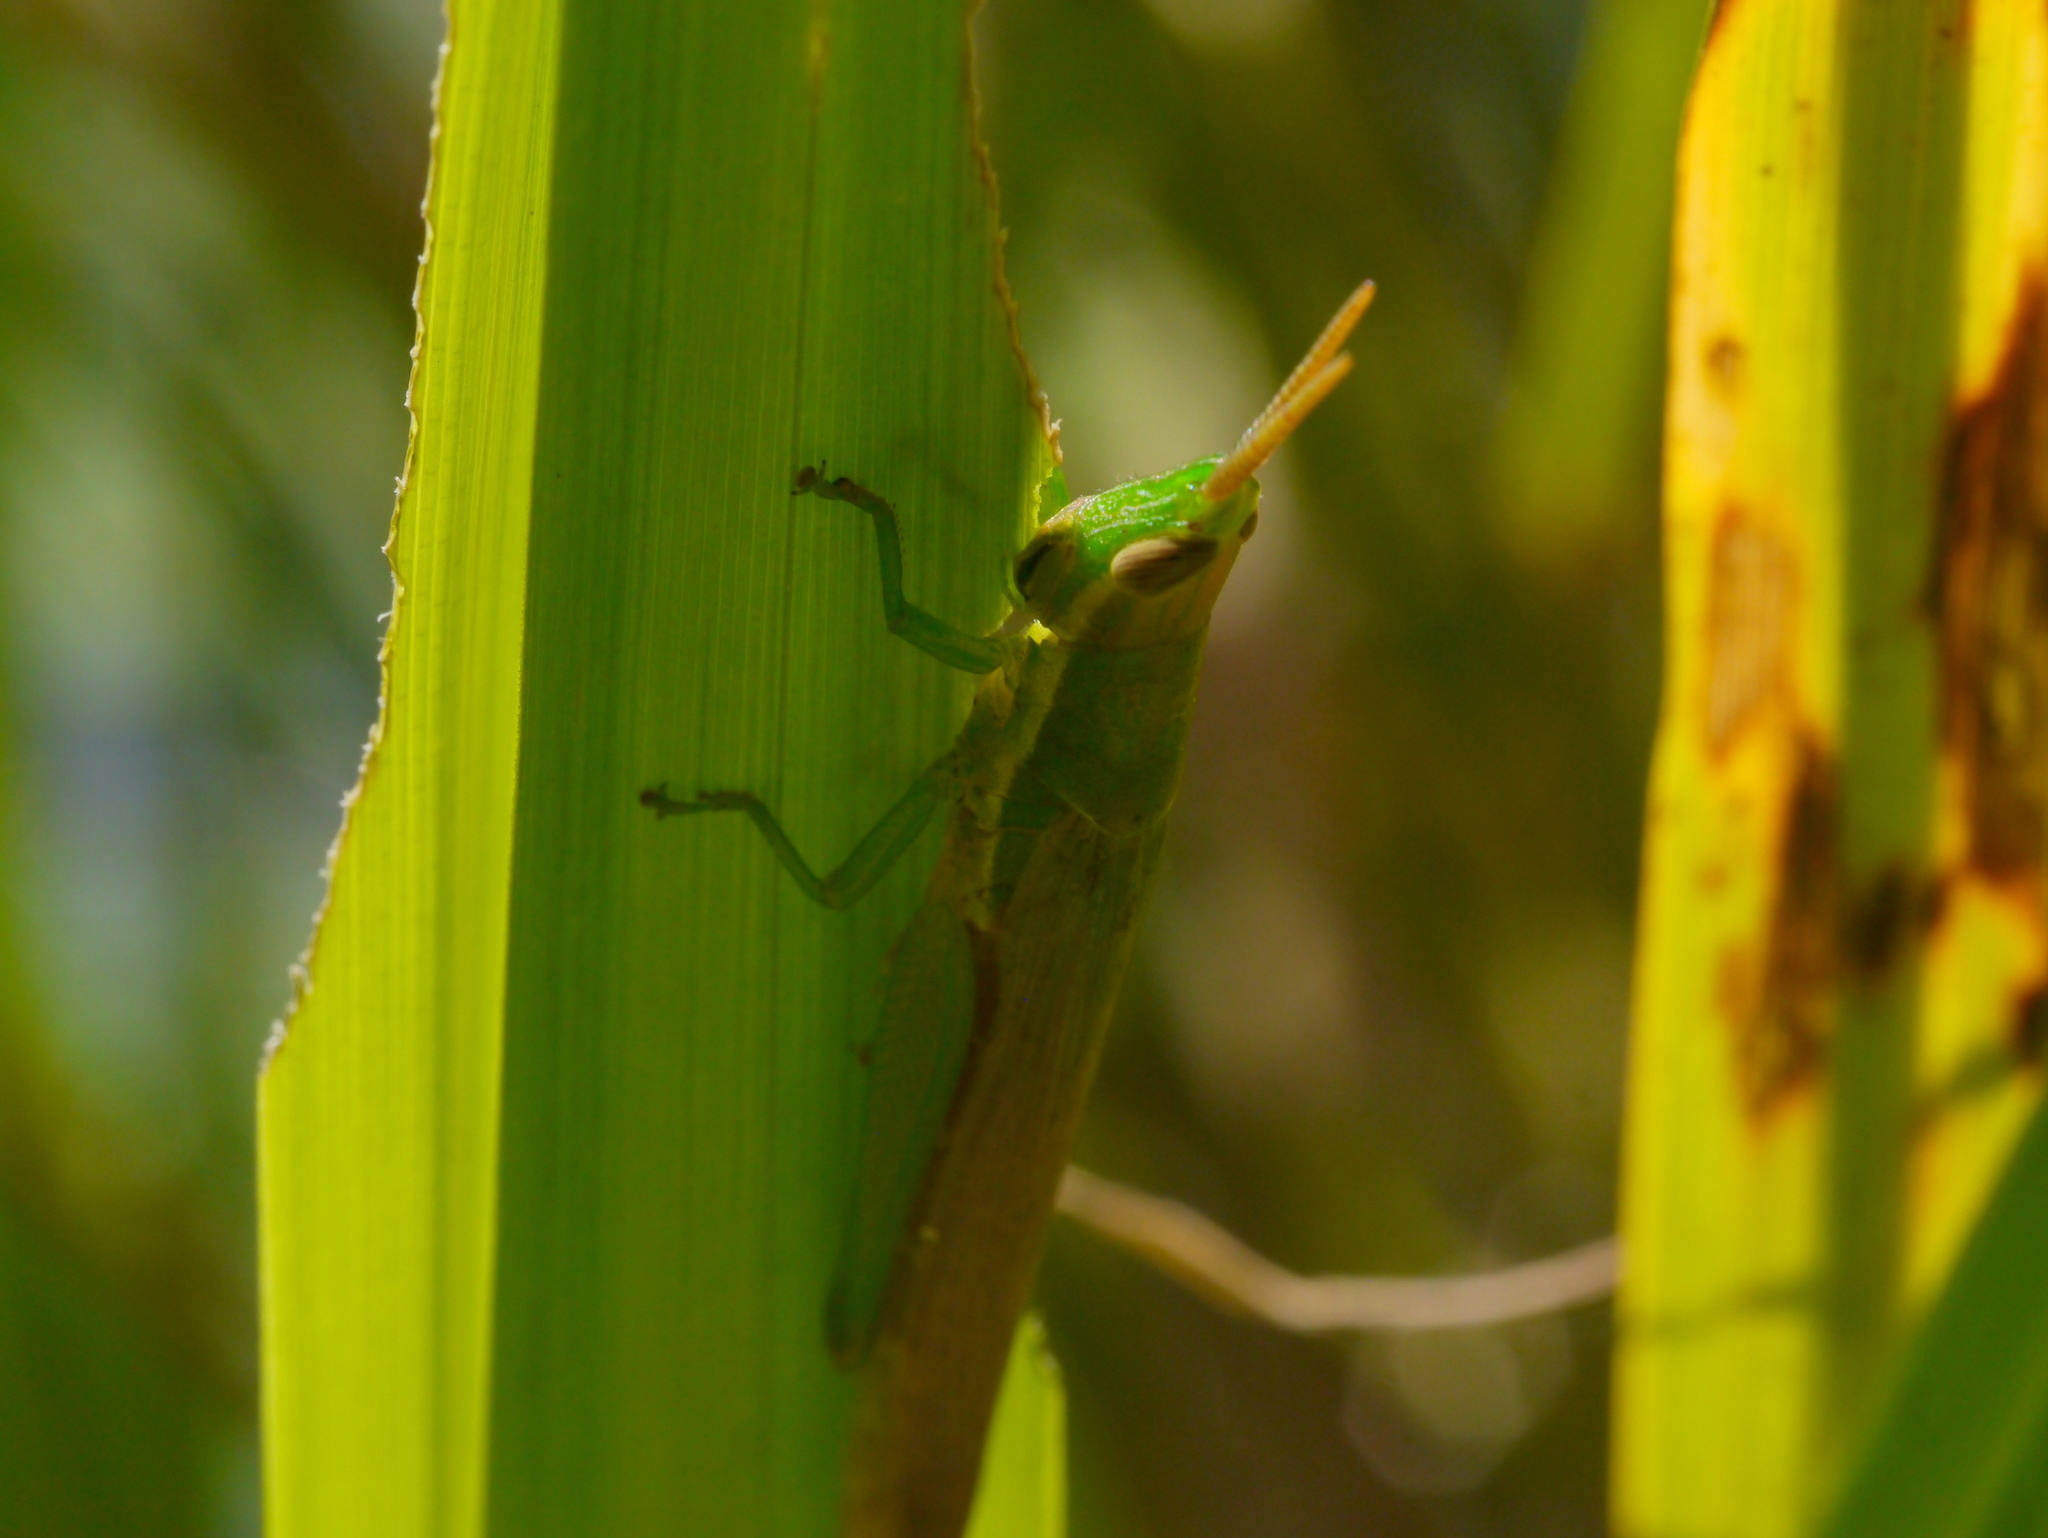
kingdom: Animalia
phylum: Arthropoda
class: Insecta
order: Orthoptera
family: Acrididae
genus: Leptysma
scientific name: Leptysma marginicollis
